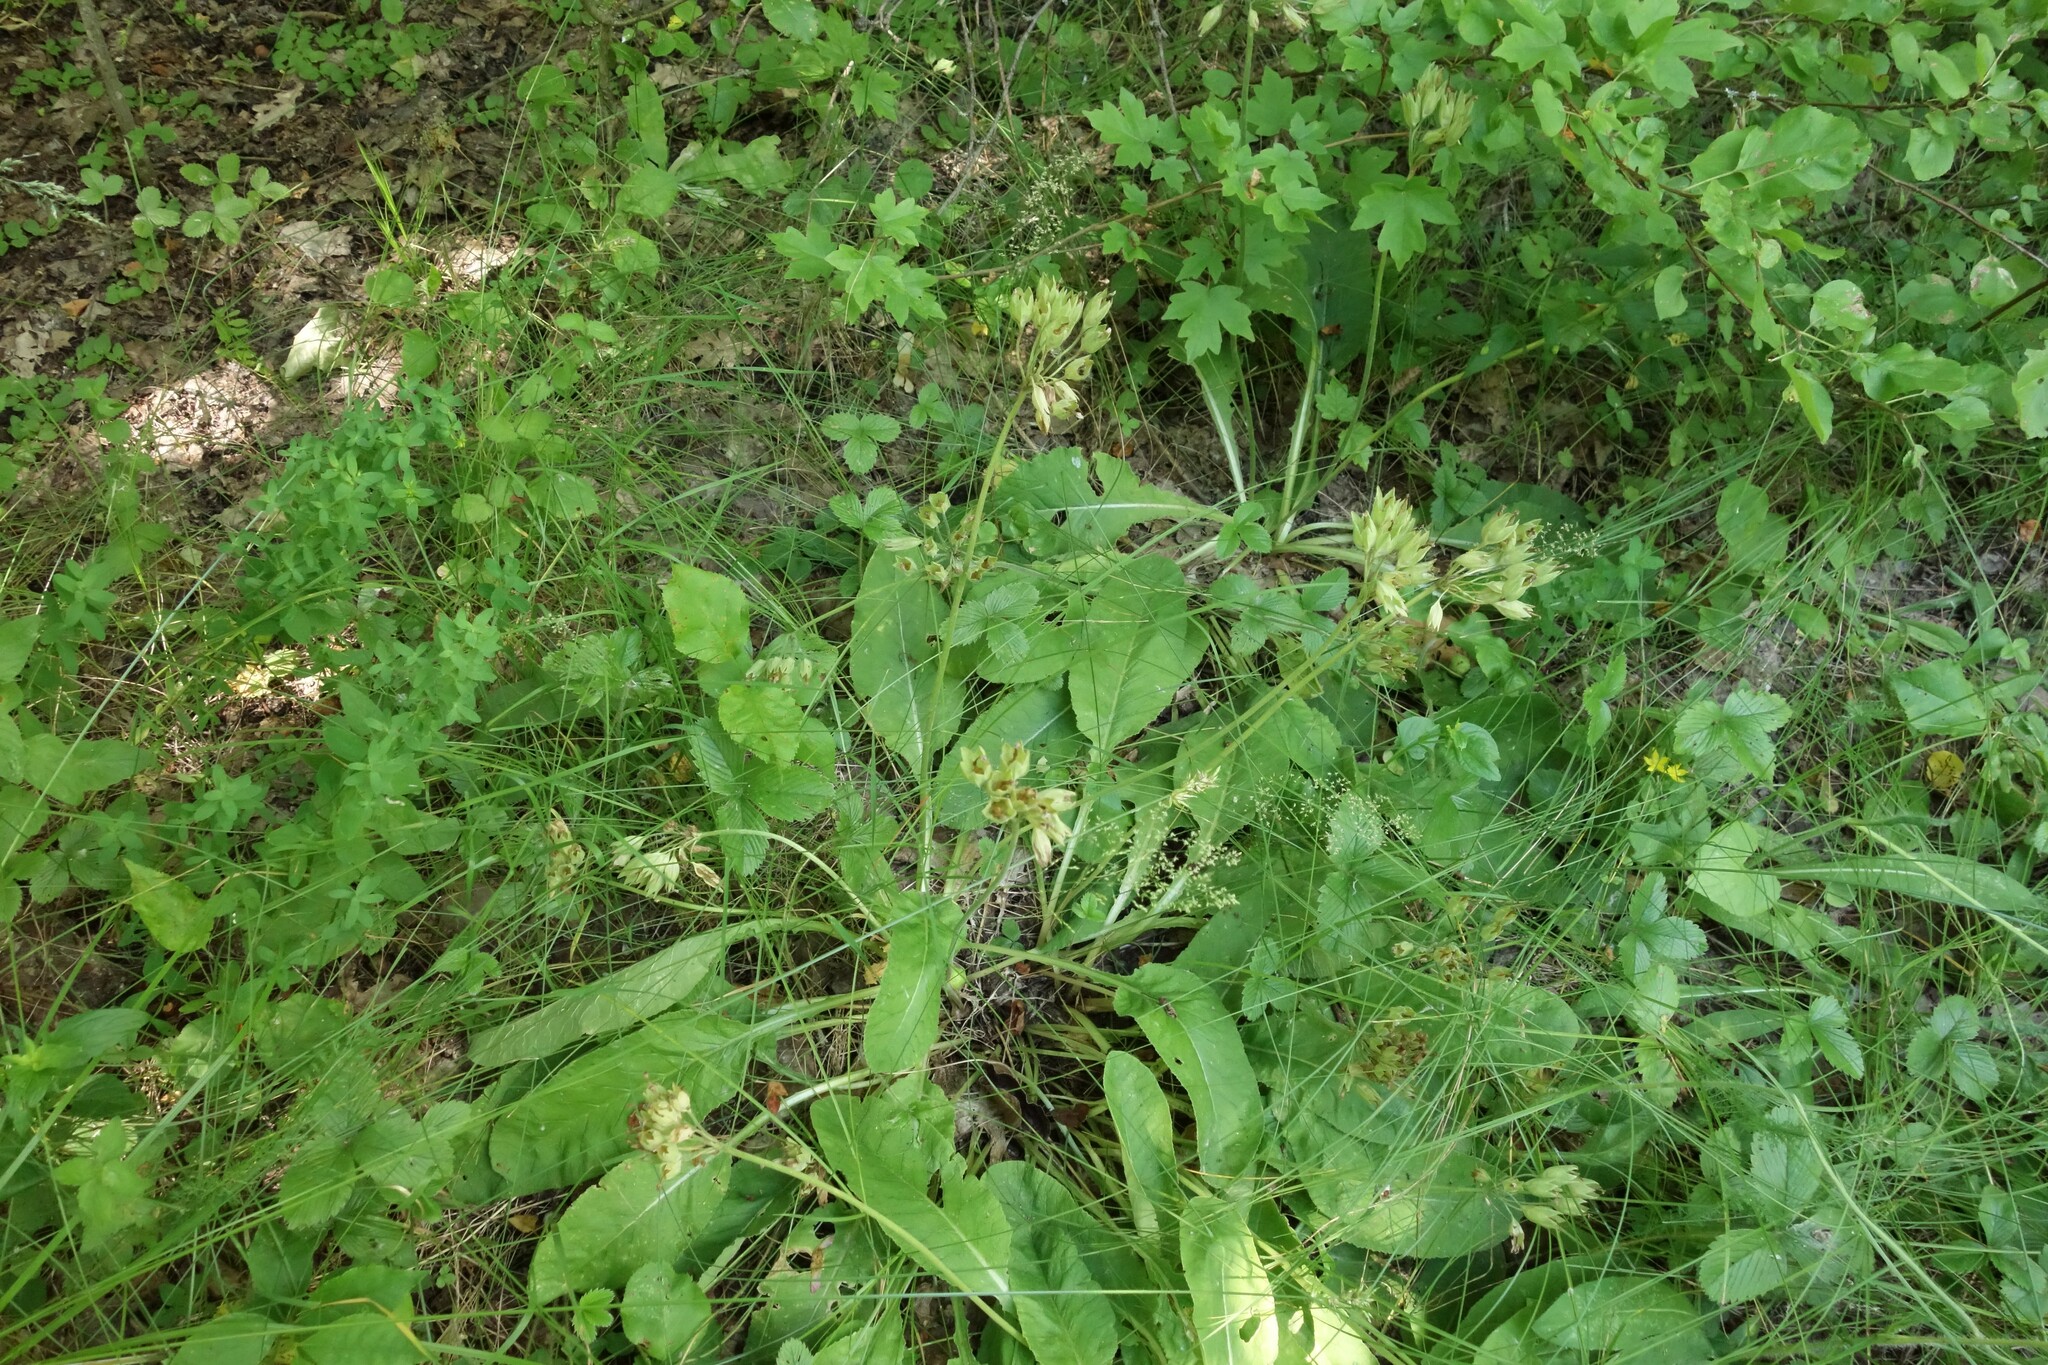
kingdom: Plantae
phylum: Tracheophyta
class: Magnoliopsida
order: Ericales
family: Primulaceae
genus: Primula
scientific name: Primula veris
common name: Cowslip
